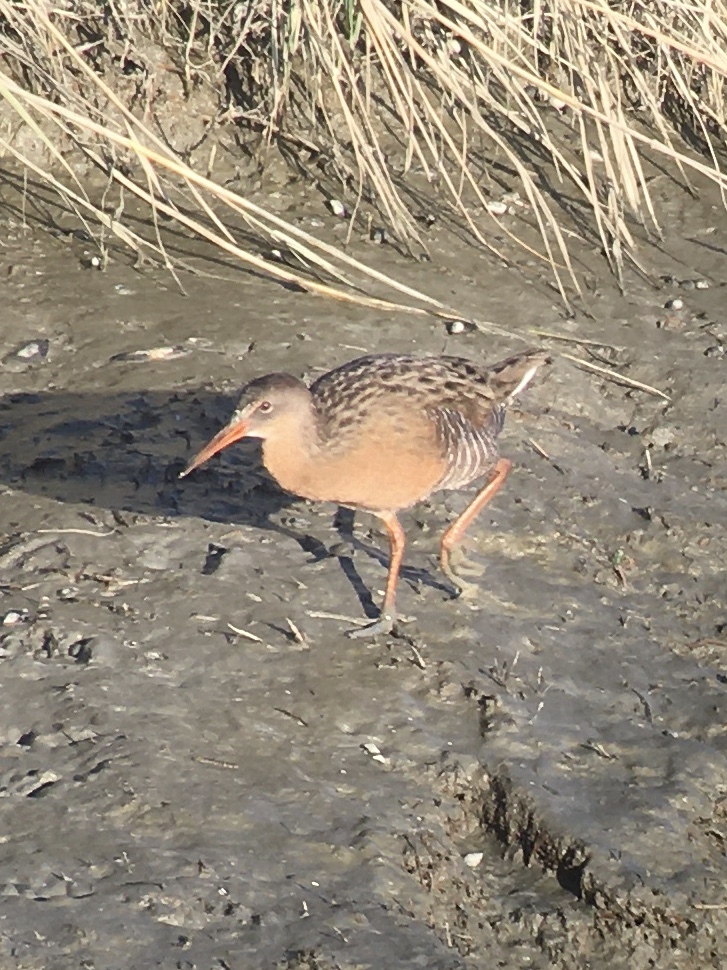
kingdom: Animalia
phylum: Chordata
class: Aves
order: Gruiformes
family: Rallidae
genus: Rallus
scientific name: Rallus obsoletus
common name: Ridgway's rail
